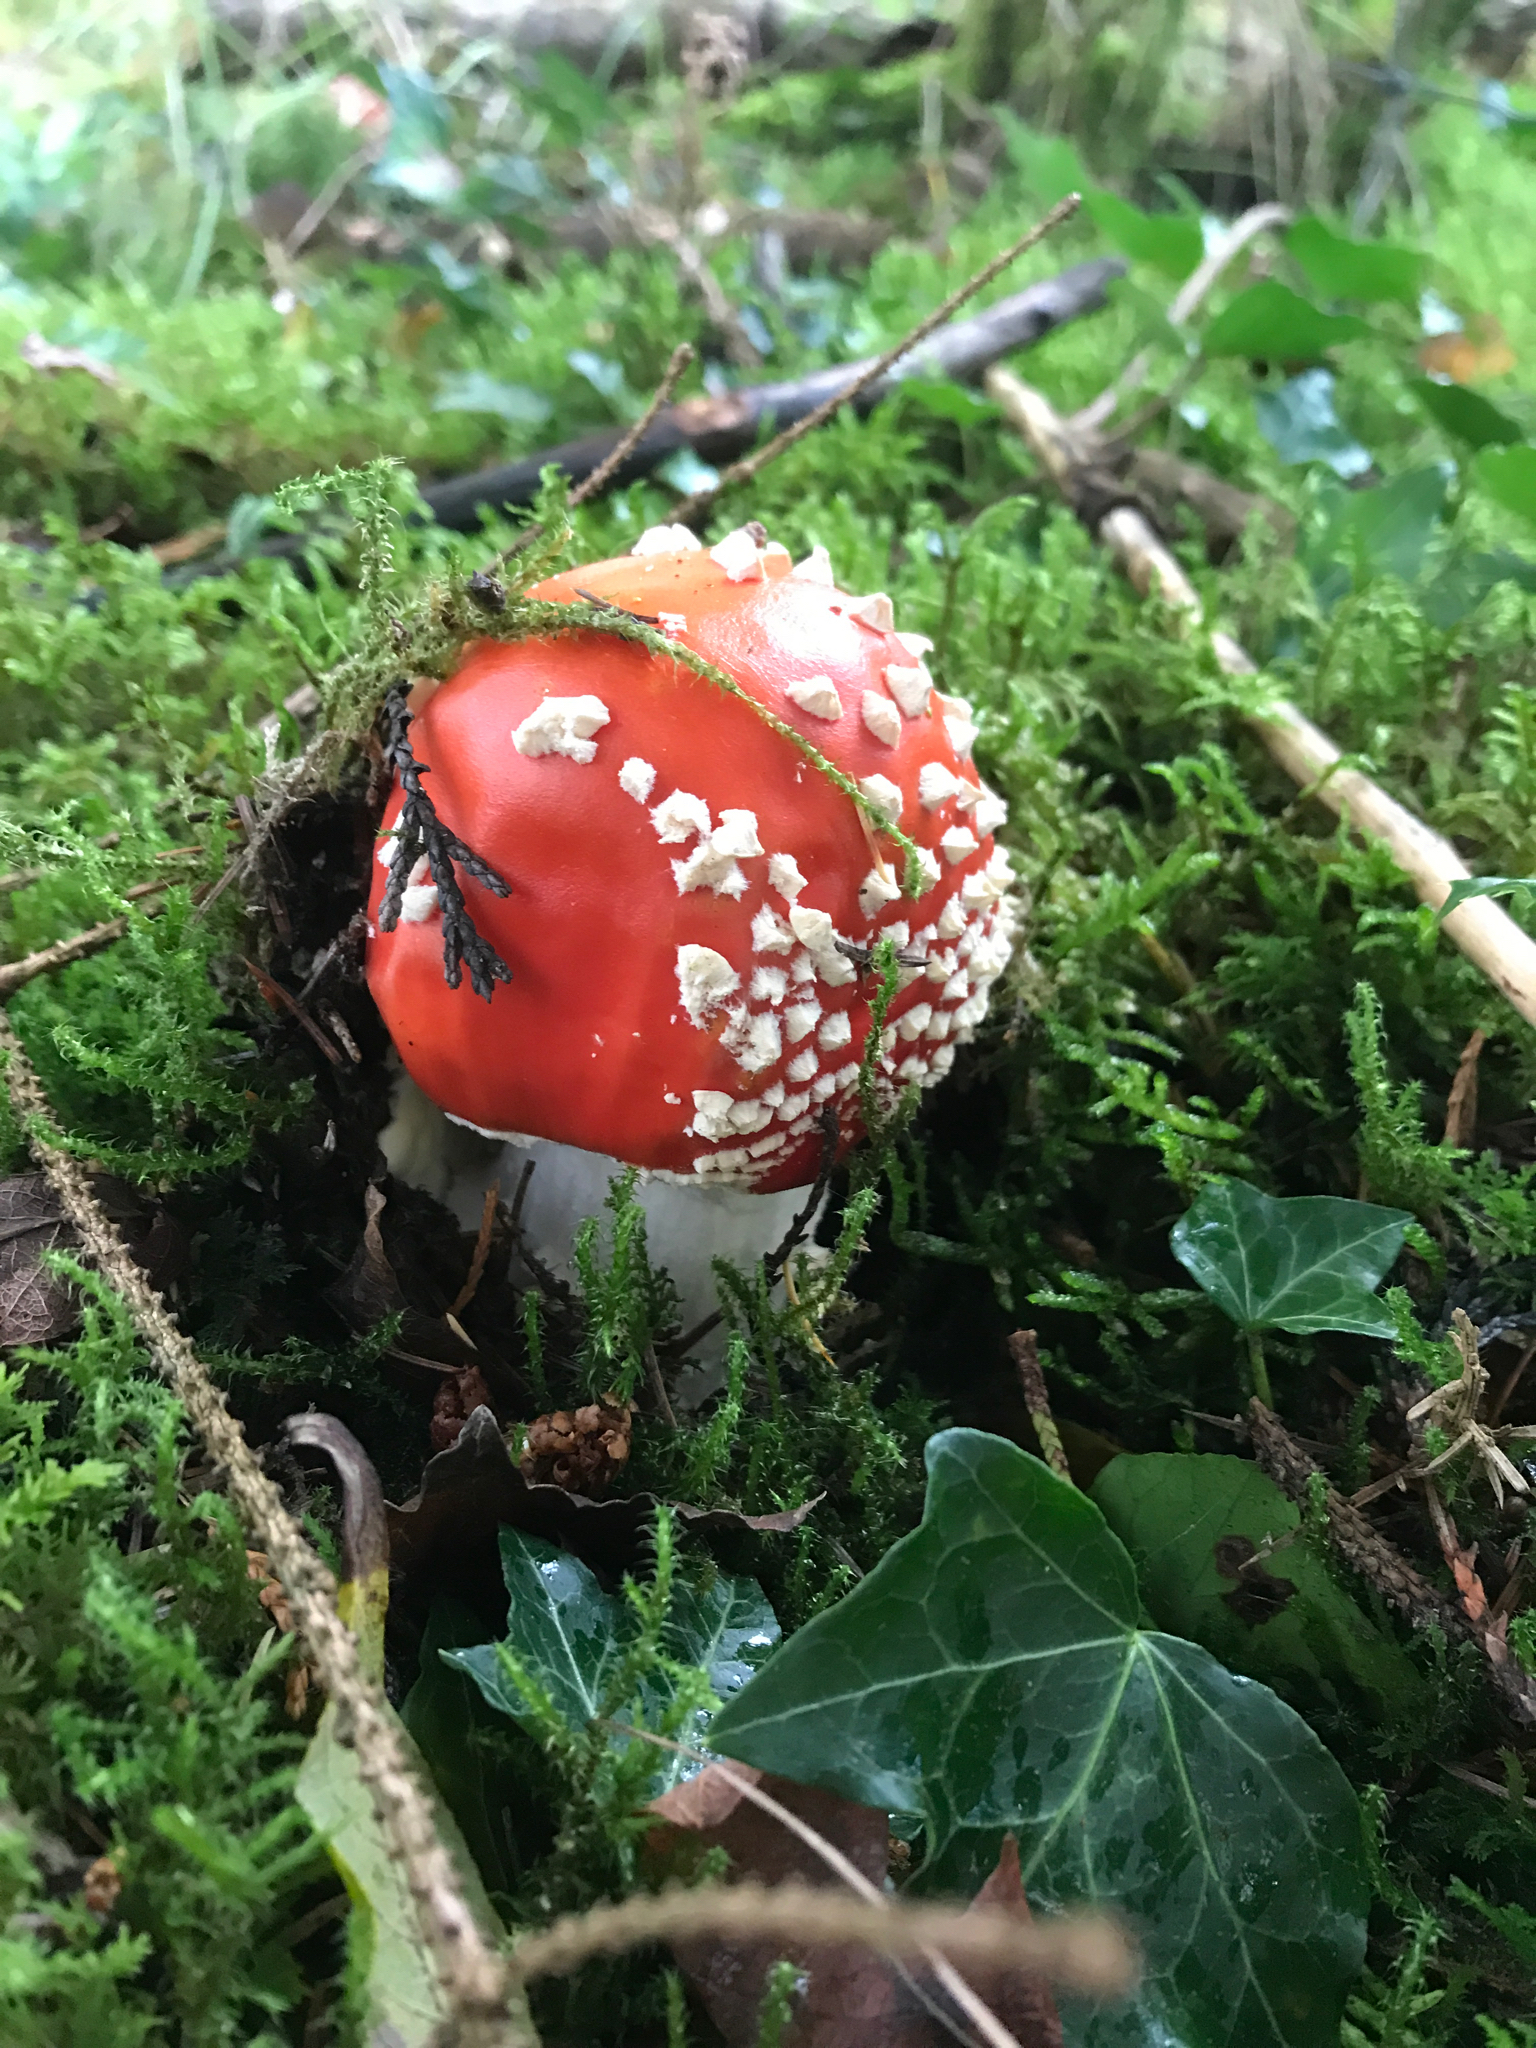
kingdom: Fungi
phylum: Basidiomycota
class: Agaricomycetes
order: Agaricales
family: Amanitaceae
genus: Amanita
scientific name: Amanita muscaria
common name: Fly agaric
